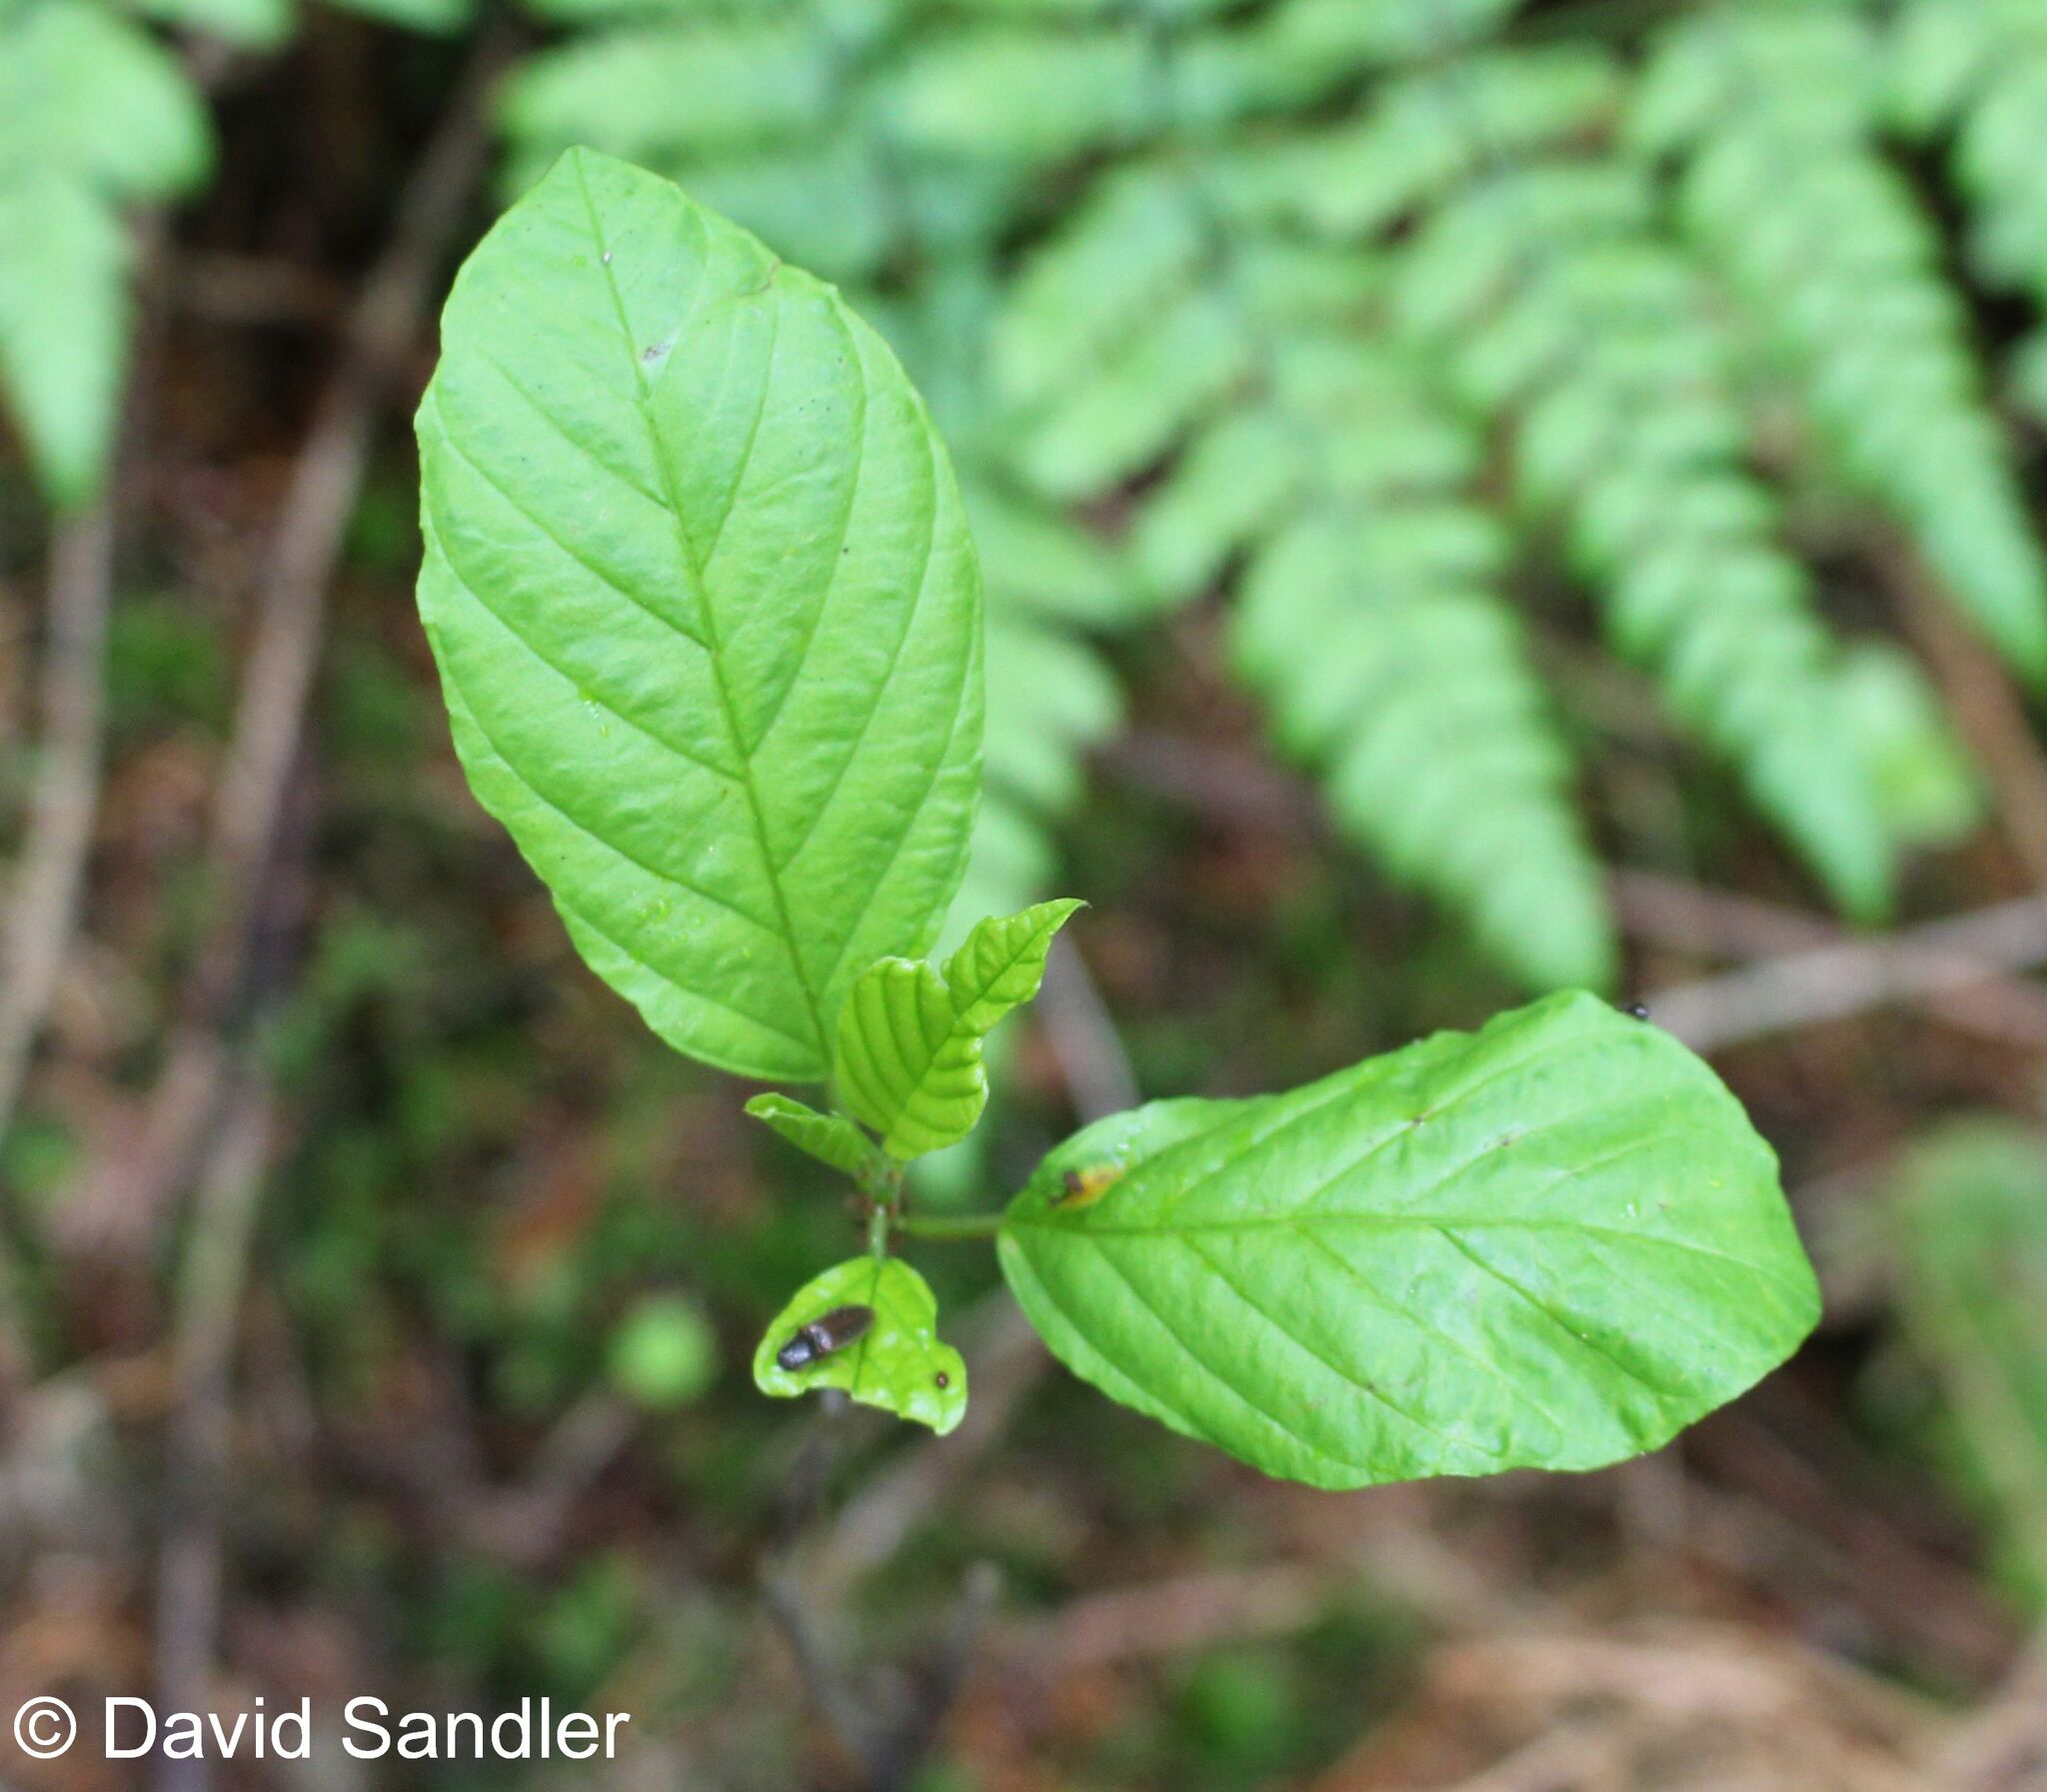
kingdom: Plantae
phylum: Tracheophyta
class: Magnoliopsida
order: Rosales
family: Rhamnaceae
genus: Frangula
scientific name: Frangula alnus
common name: Alder buckthorn
